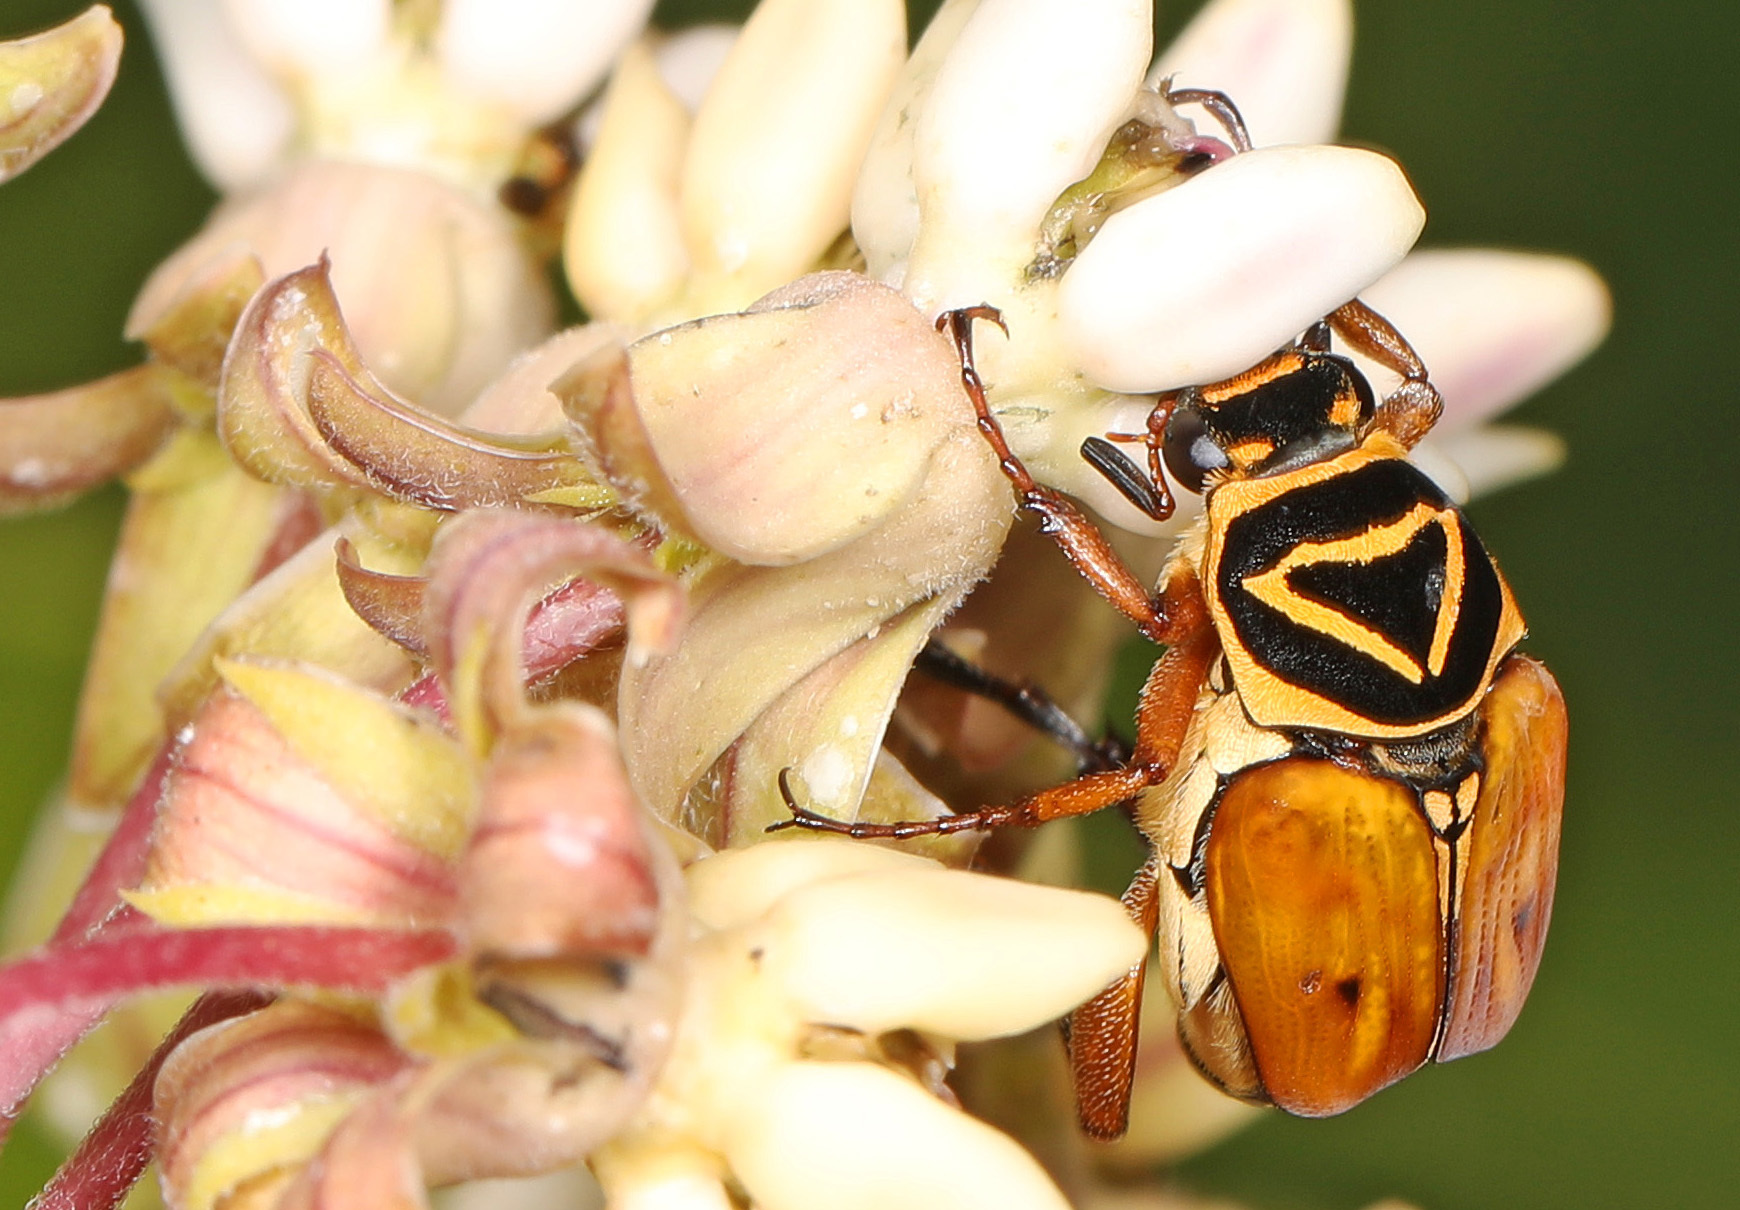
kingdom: Animalia
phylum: Arthropoda
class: Insecta
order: Coleoptera
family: Scarabaeidae
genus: Trigonopeltastes
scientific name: Trigonopeltastes delta
